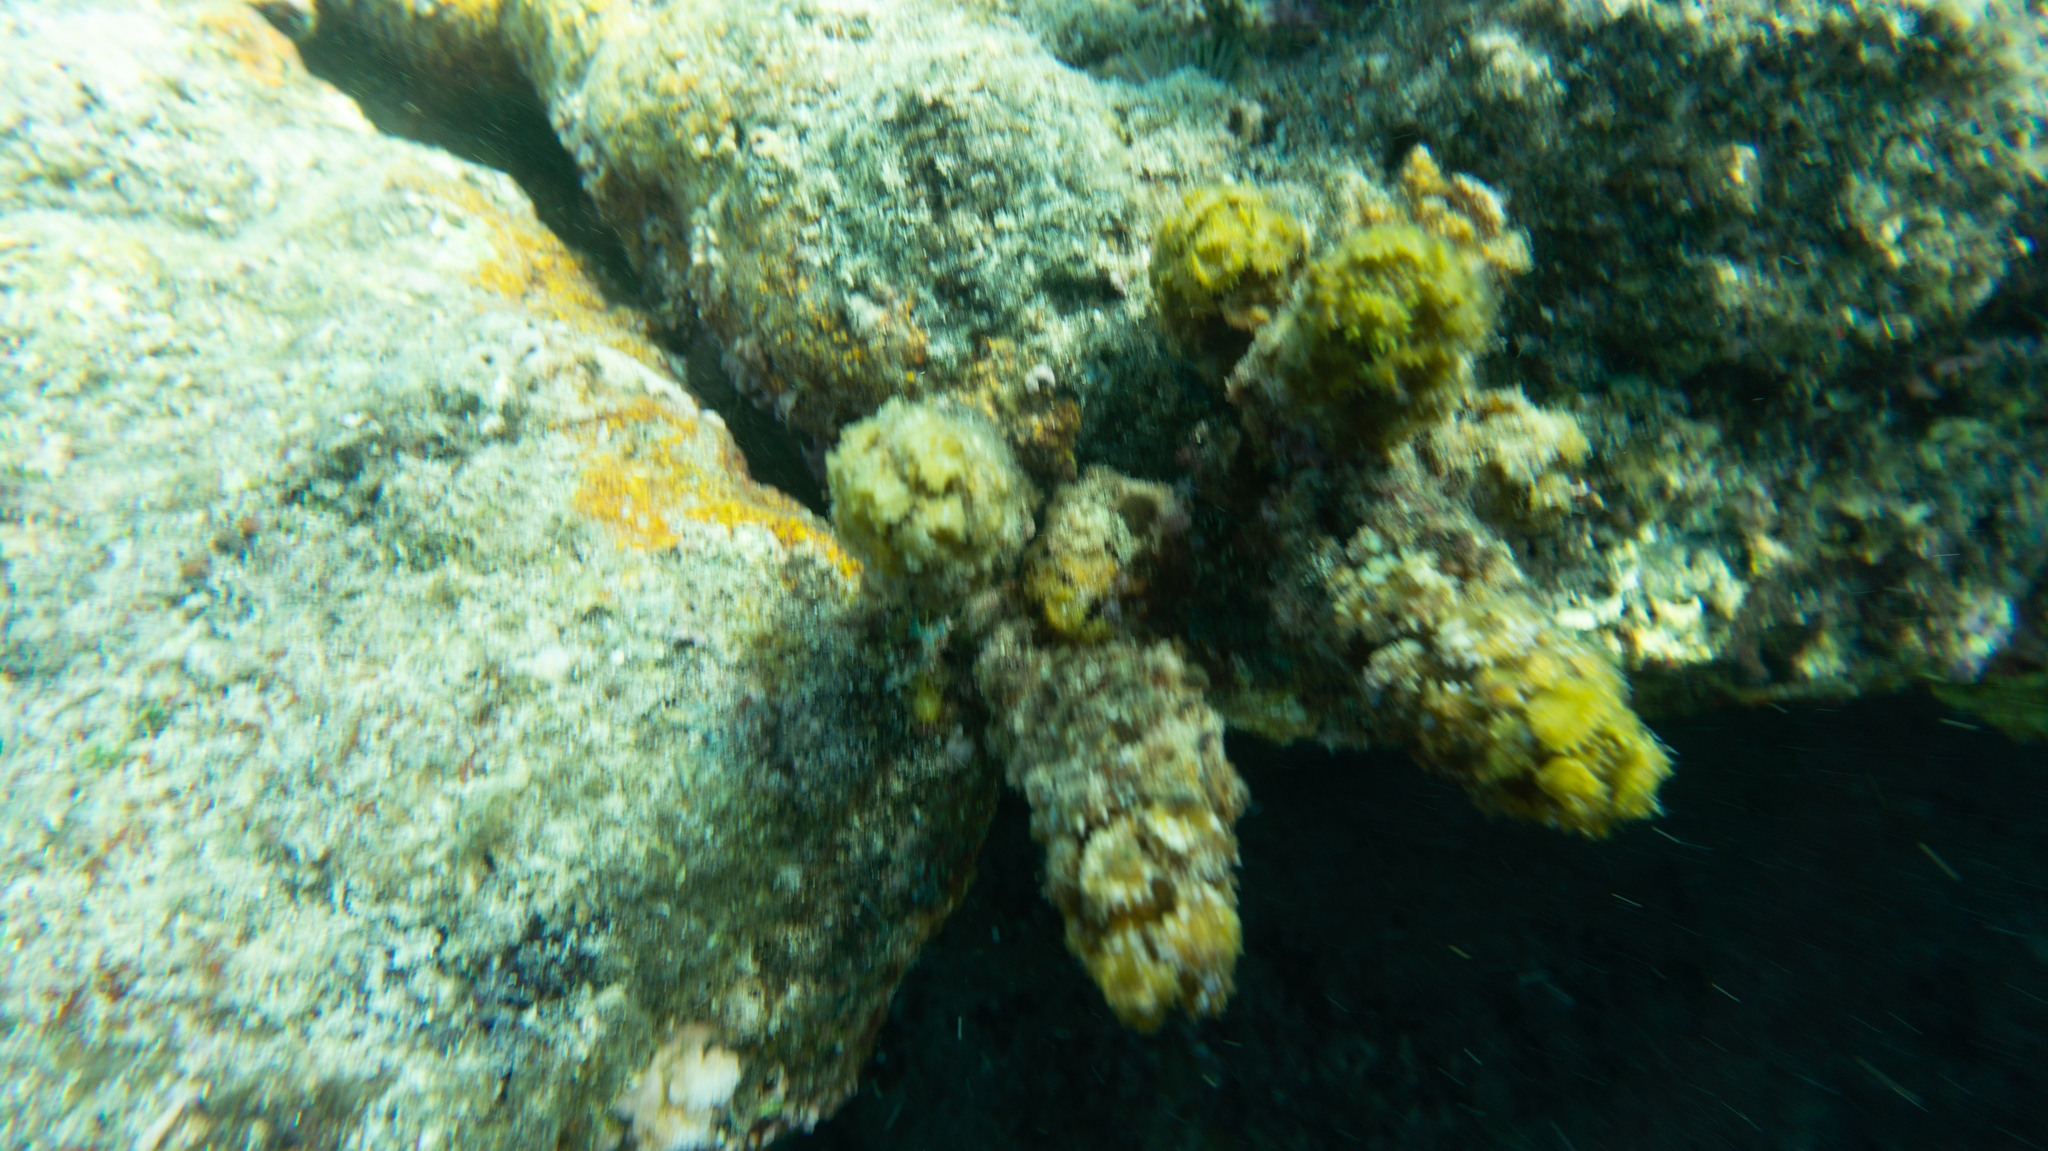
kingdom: Chromista
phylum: Ochrophyta
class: Phaeophyceae
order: Fucales
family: Sargassaceae
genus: Turbinaria
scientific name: Turbinaria ornata
